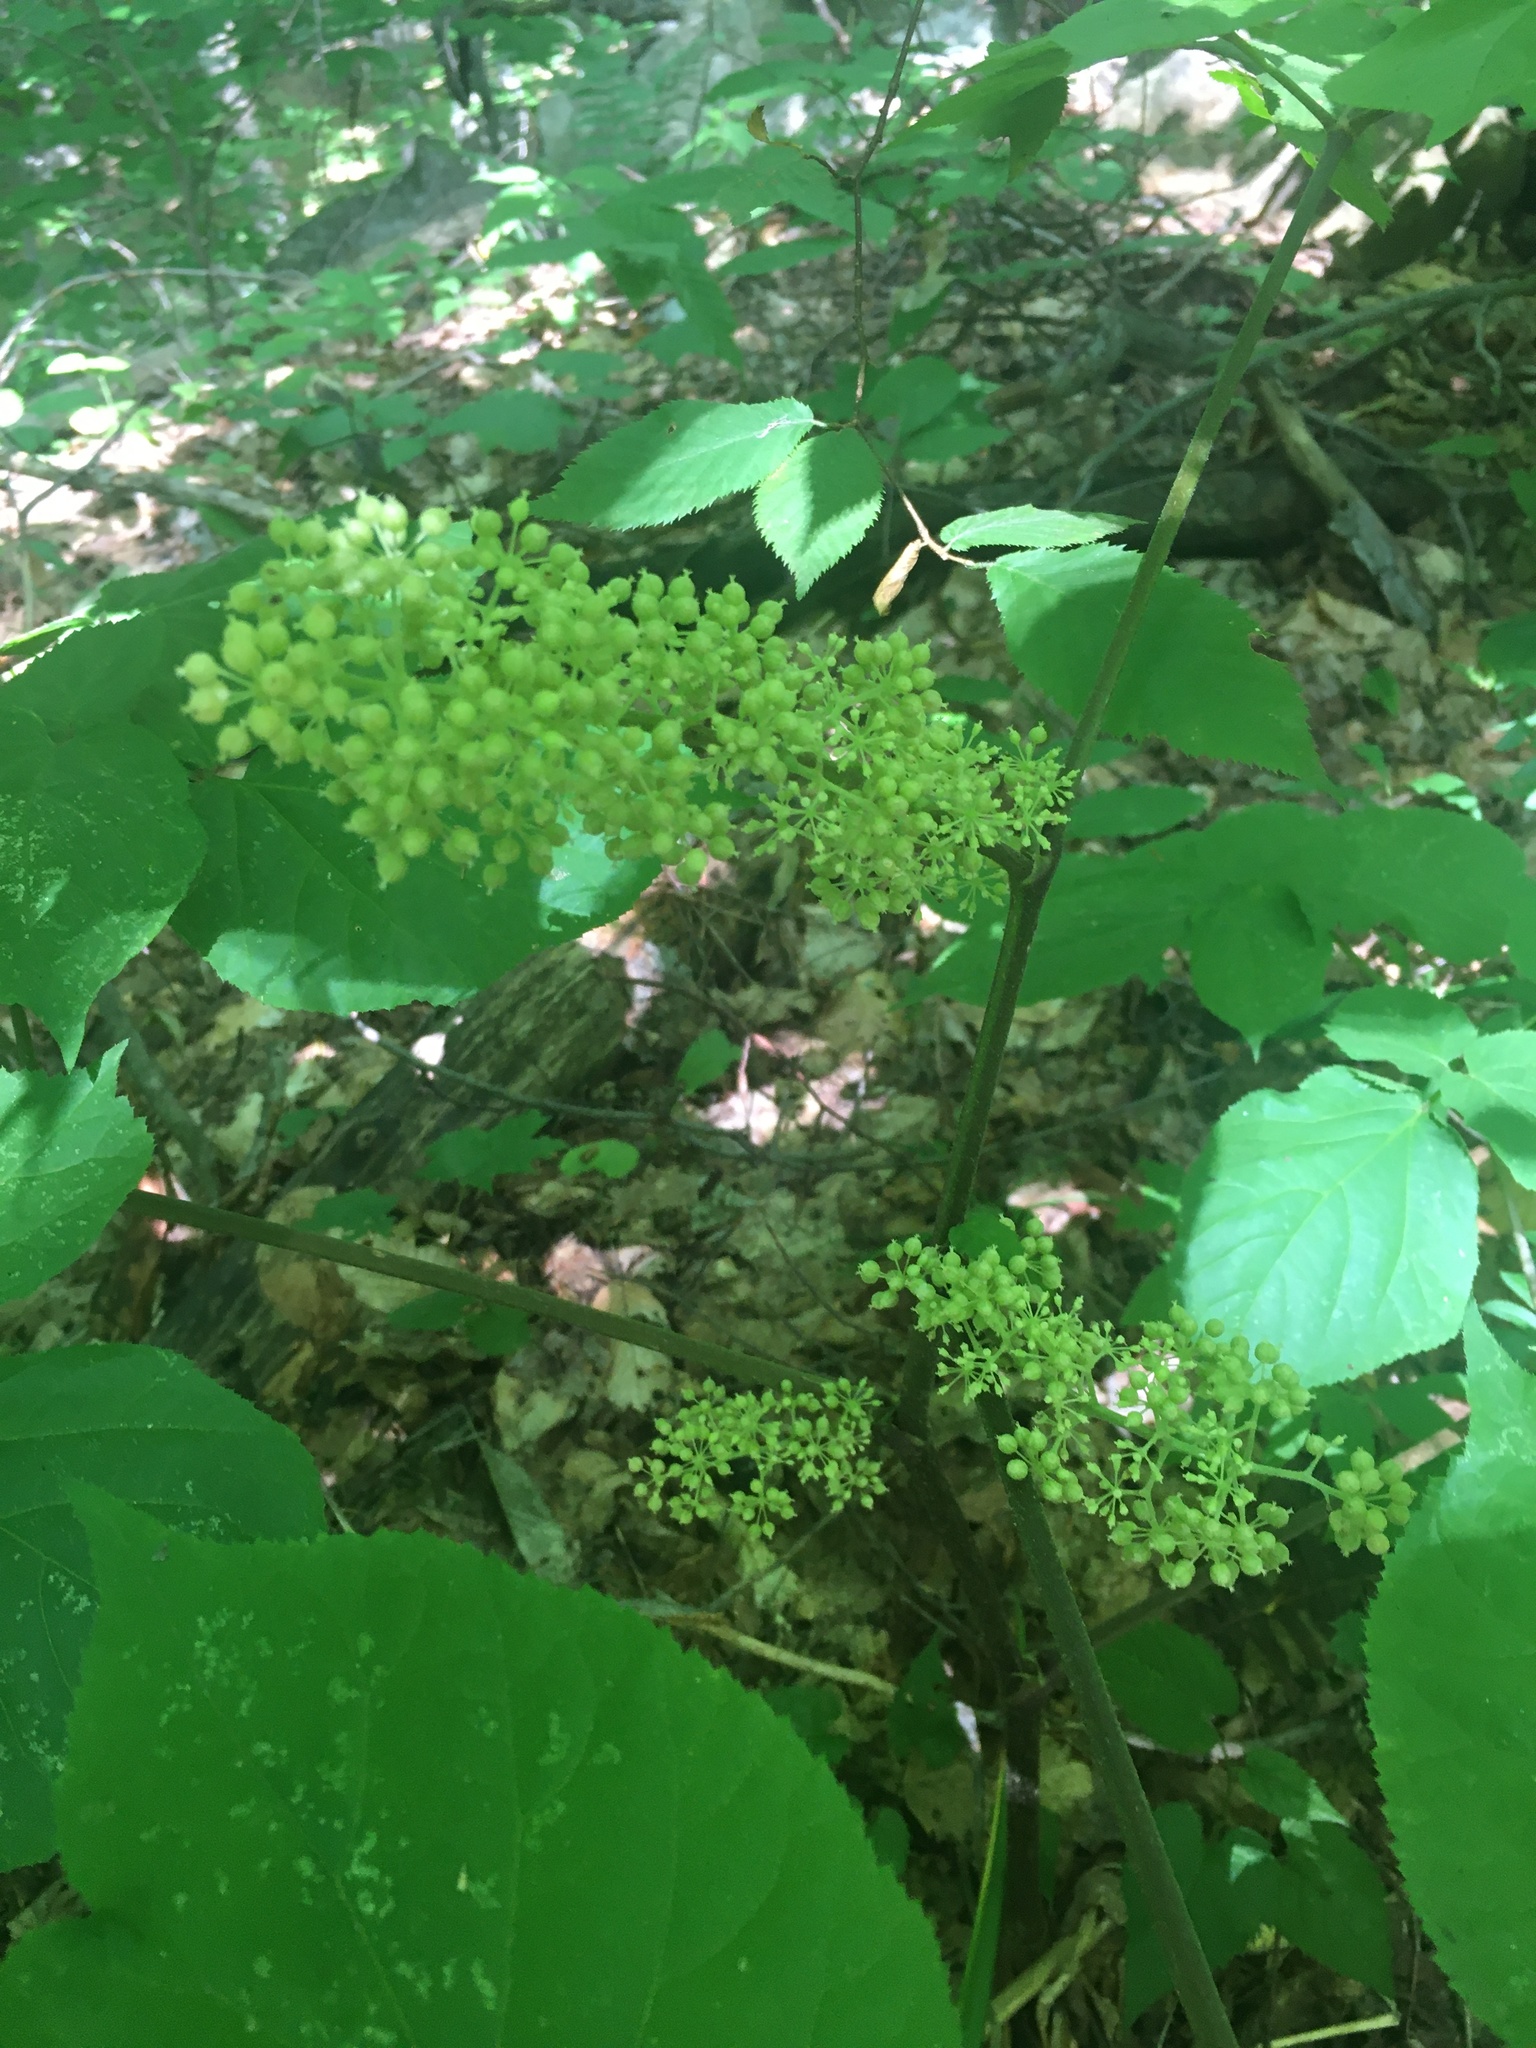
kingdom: Plantae
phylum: Tracheophyta
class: Magnoliopsida
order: Apiales
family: Araliaceae
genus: Aralia
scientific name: Aralia racemosa
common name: American-spikenard
